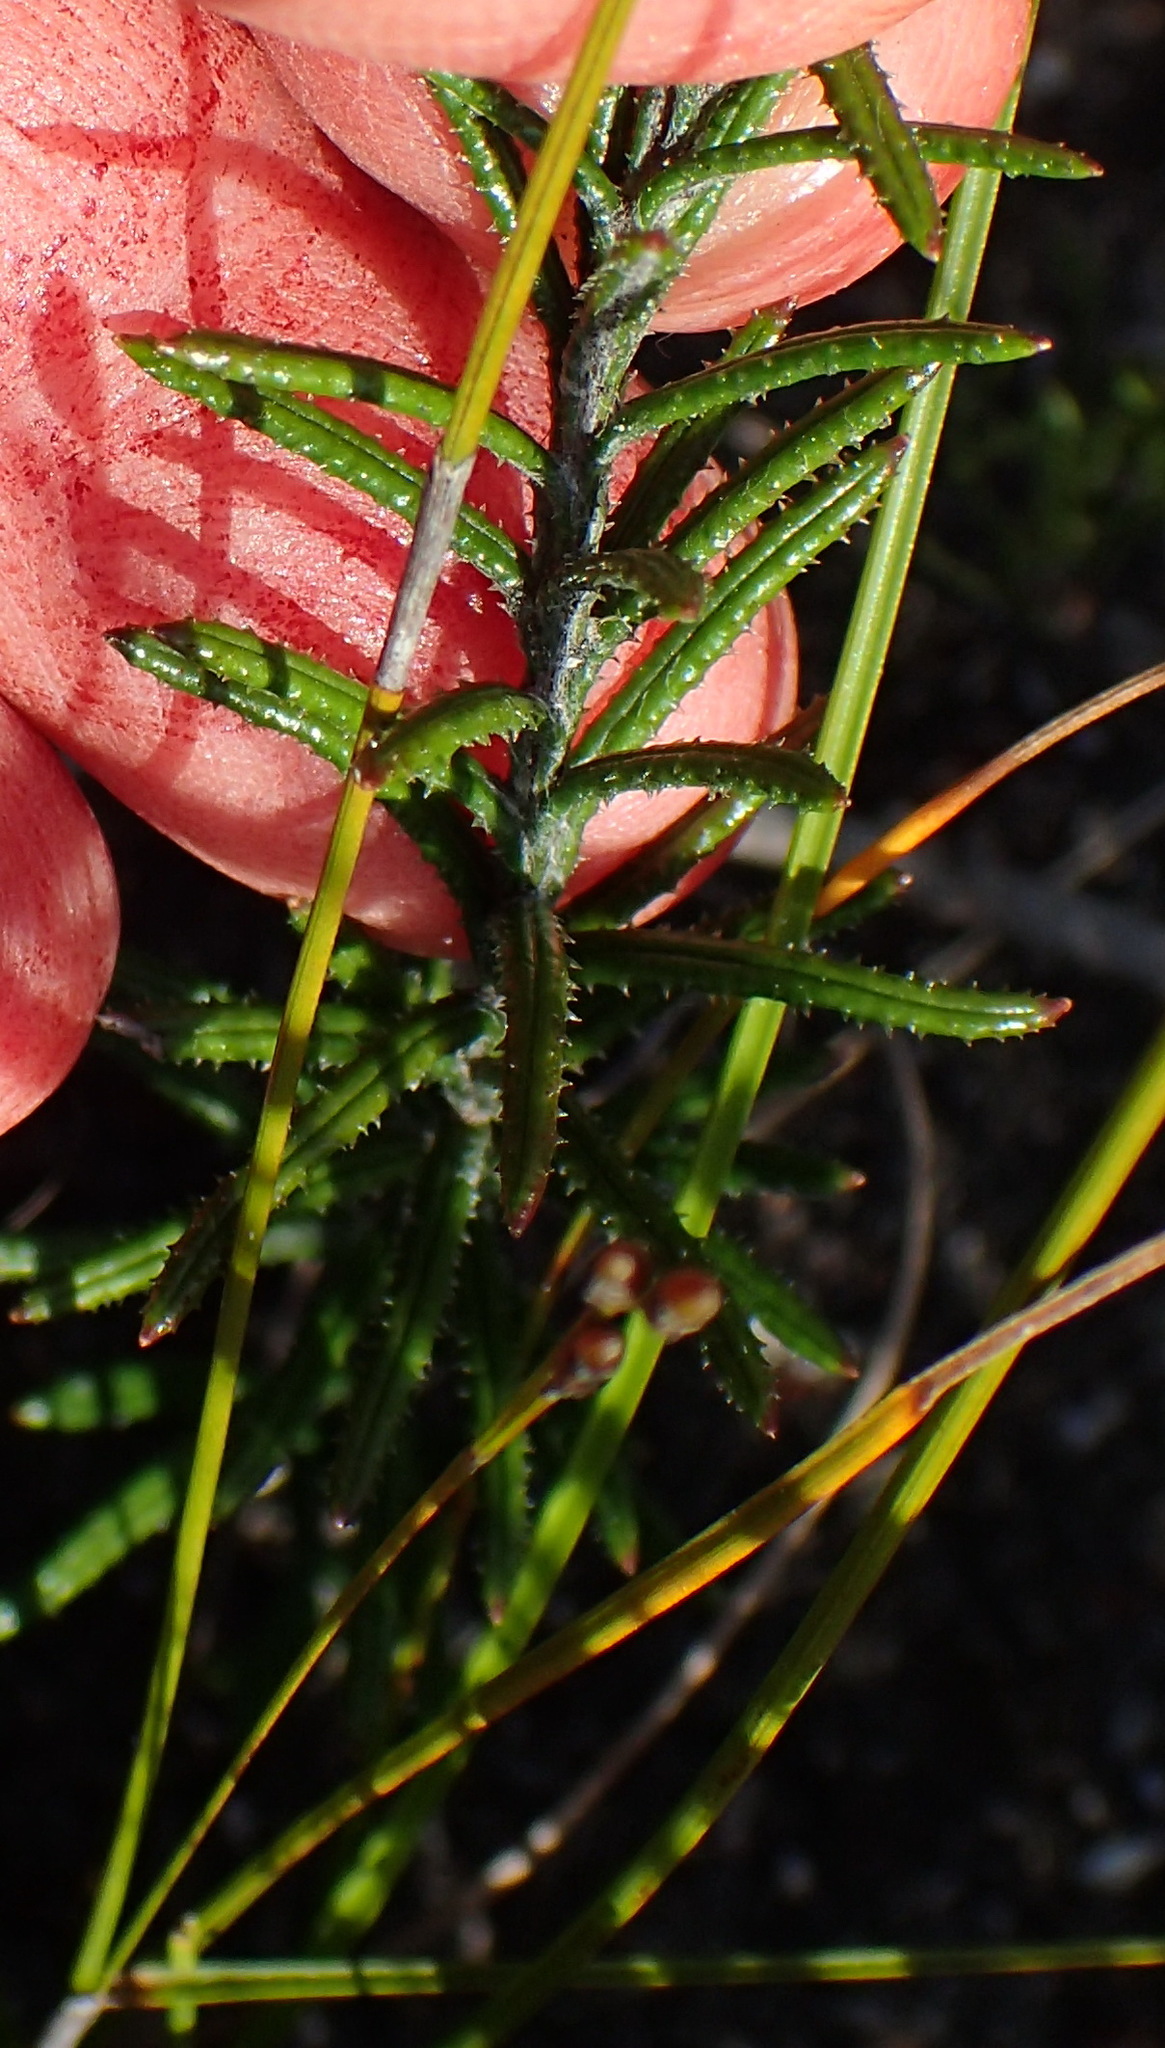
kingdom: Plantae
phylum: Tracheophyta
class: Magnoliopsida
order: Asterales
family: Asteraceae
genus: Athrixia
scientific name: Athrixia heterophylla
